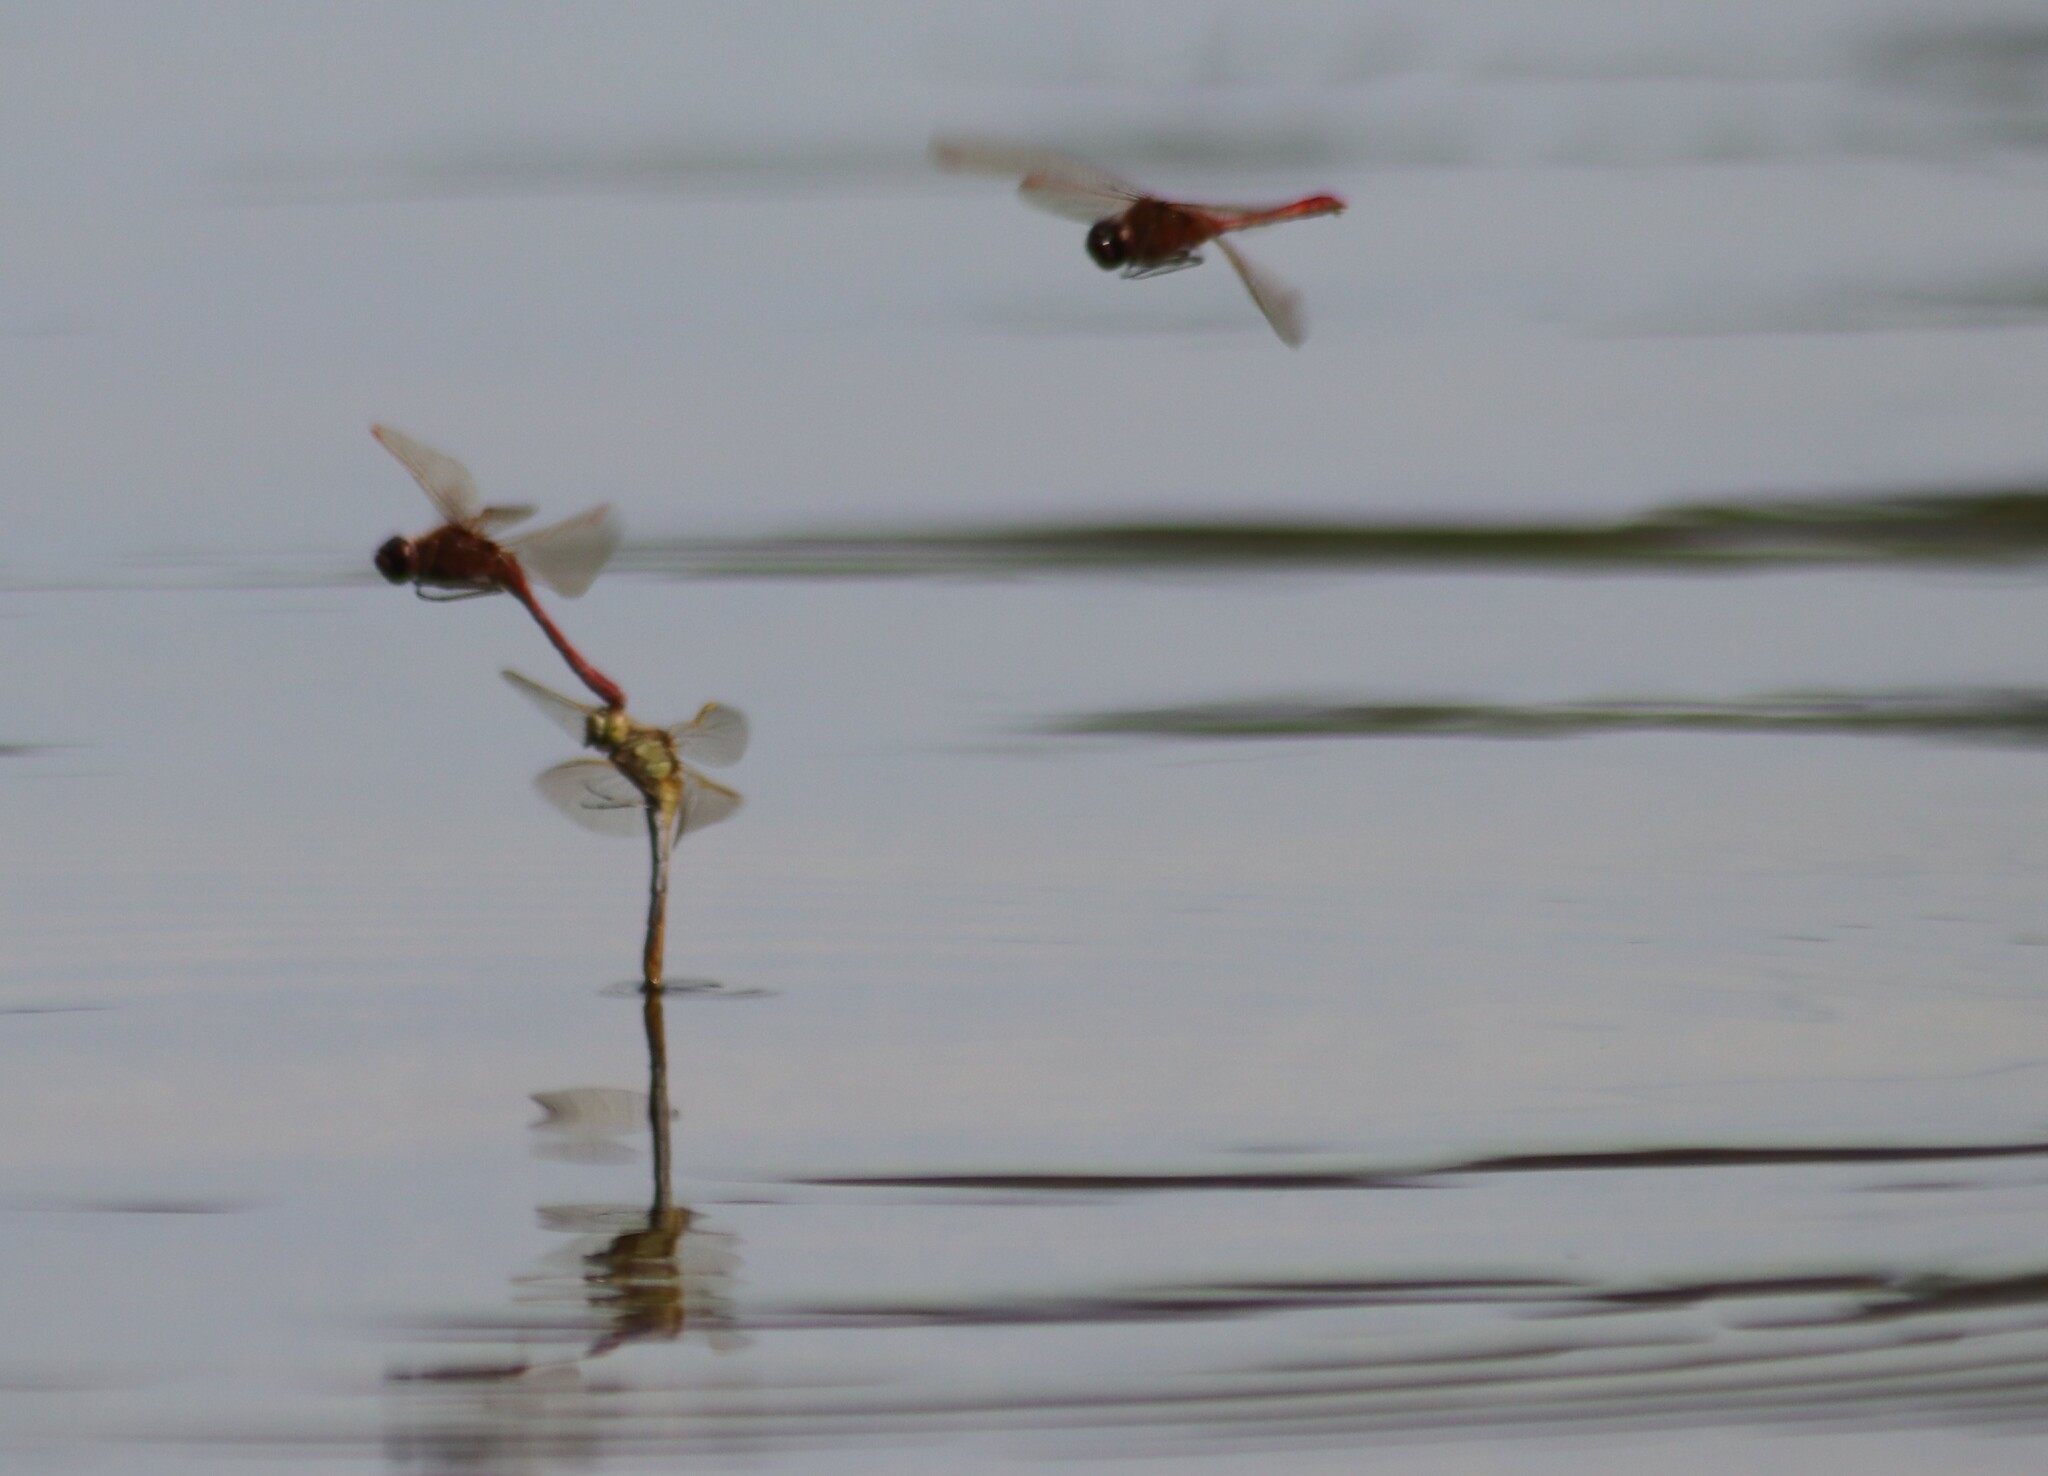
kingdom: Animalia
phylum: Arthropoda
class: Insecta
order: Odonata
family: Libellulidae
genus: Sympetrum
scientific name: Sympetrum costiferum
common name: Saffron-winged meadowhawk
